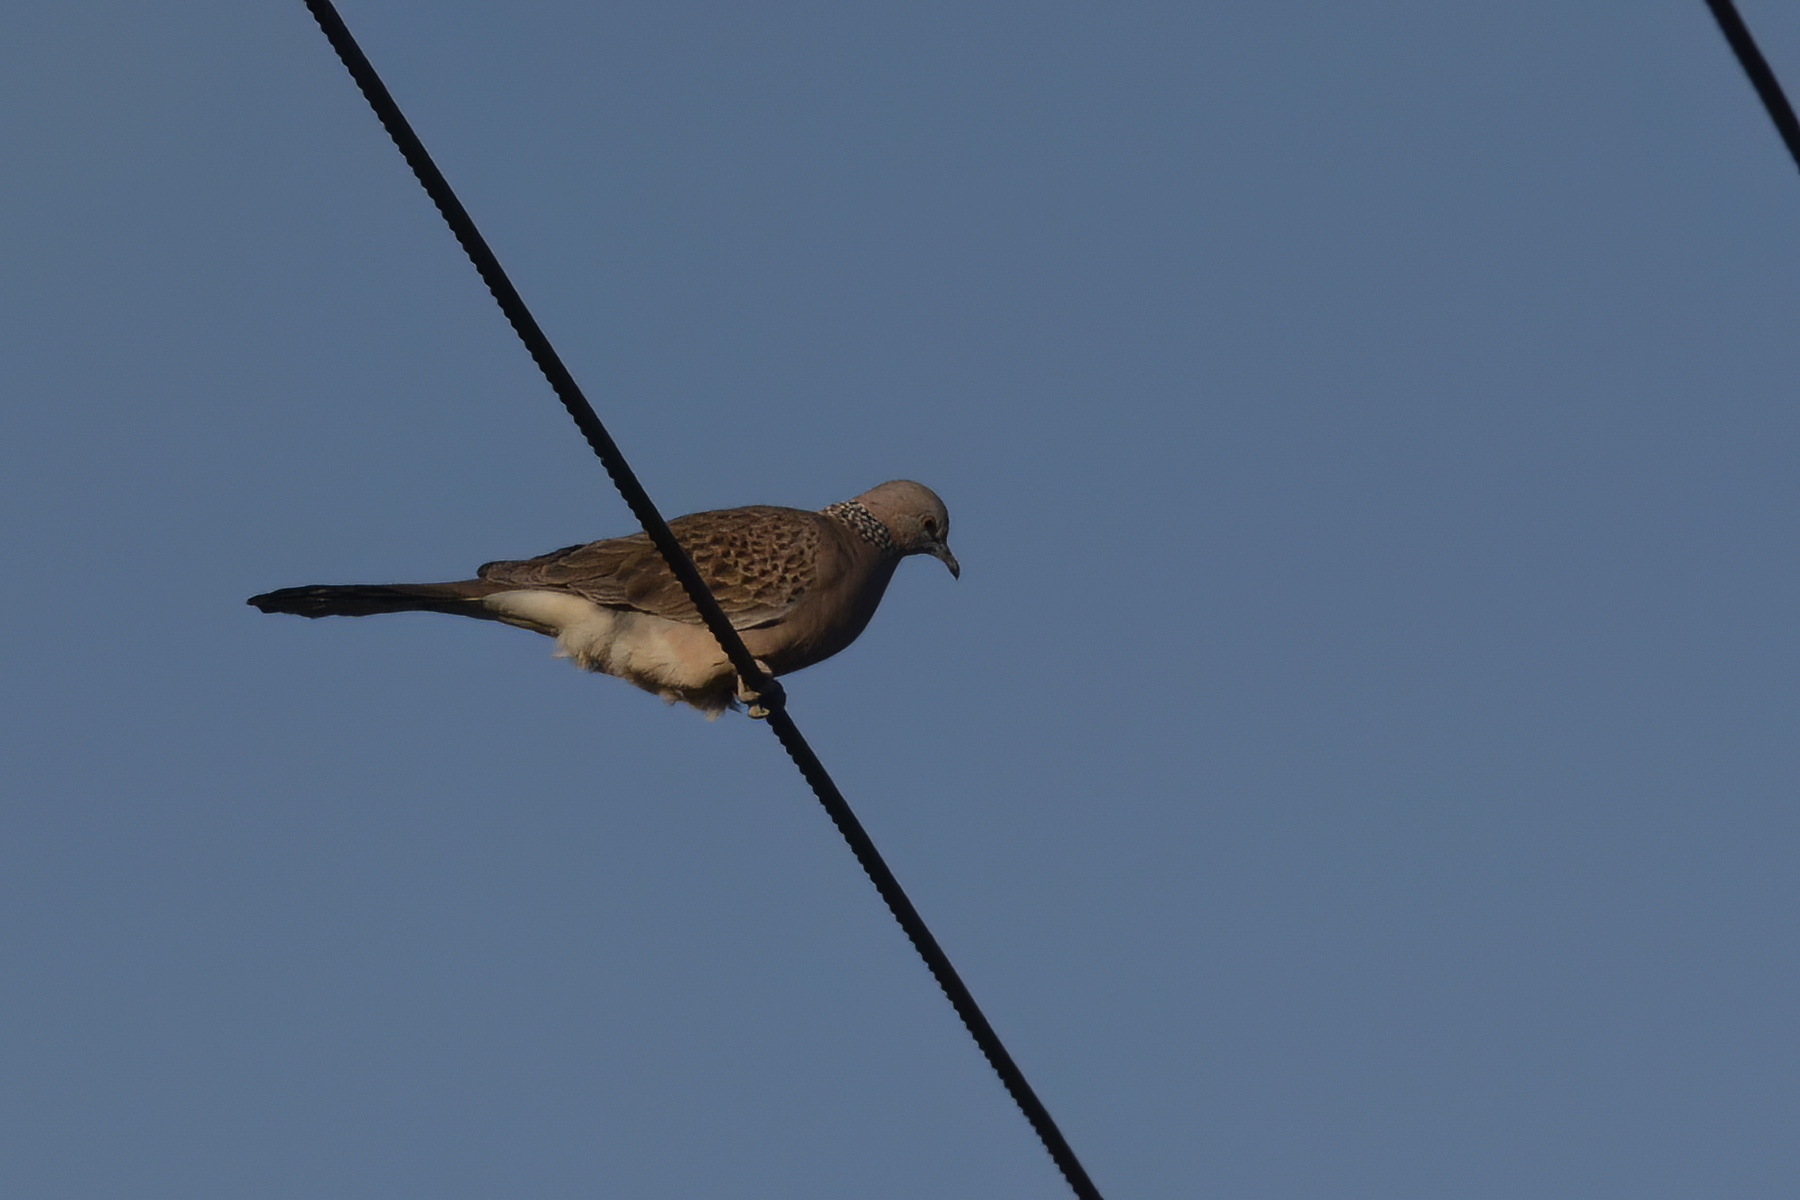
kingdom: Animalia
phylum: Chordata
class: Aves
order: Columbiformes
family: Columbidae
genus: Spilopelia
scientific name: Spilopelia chinensis
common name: Spotted dove
